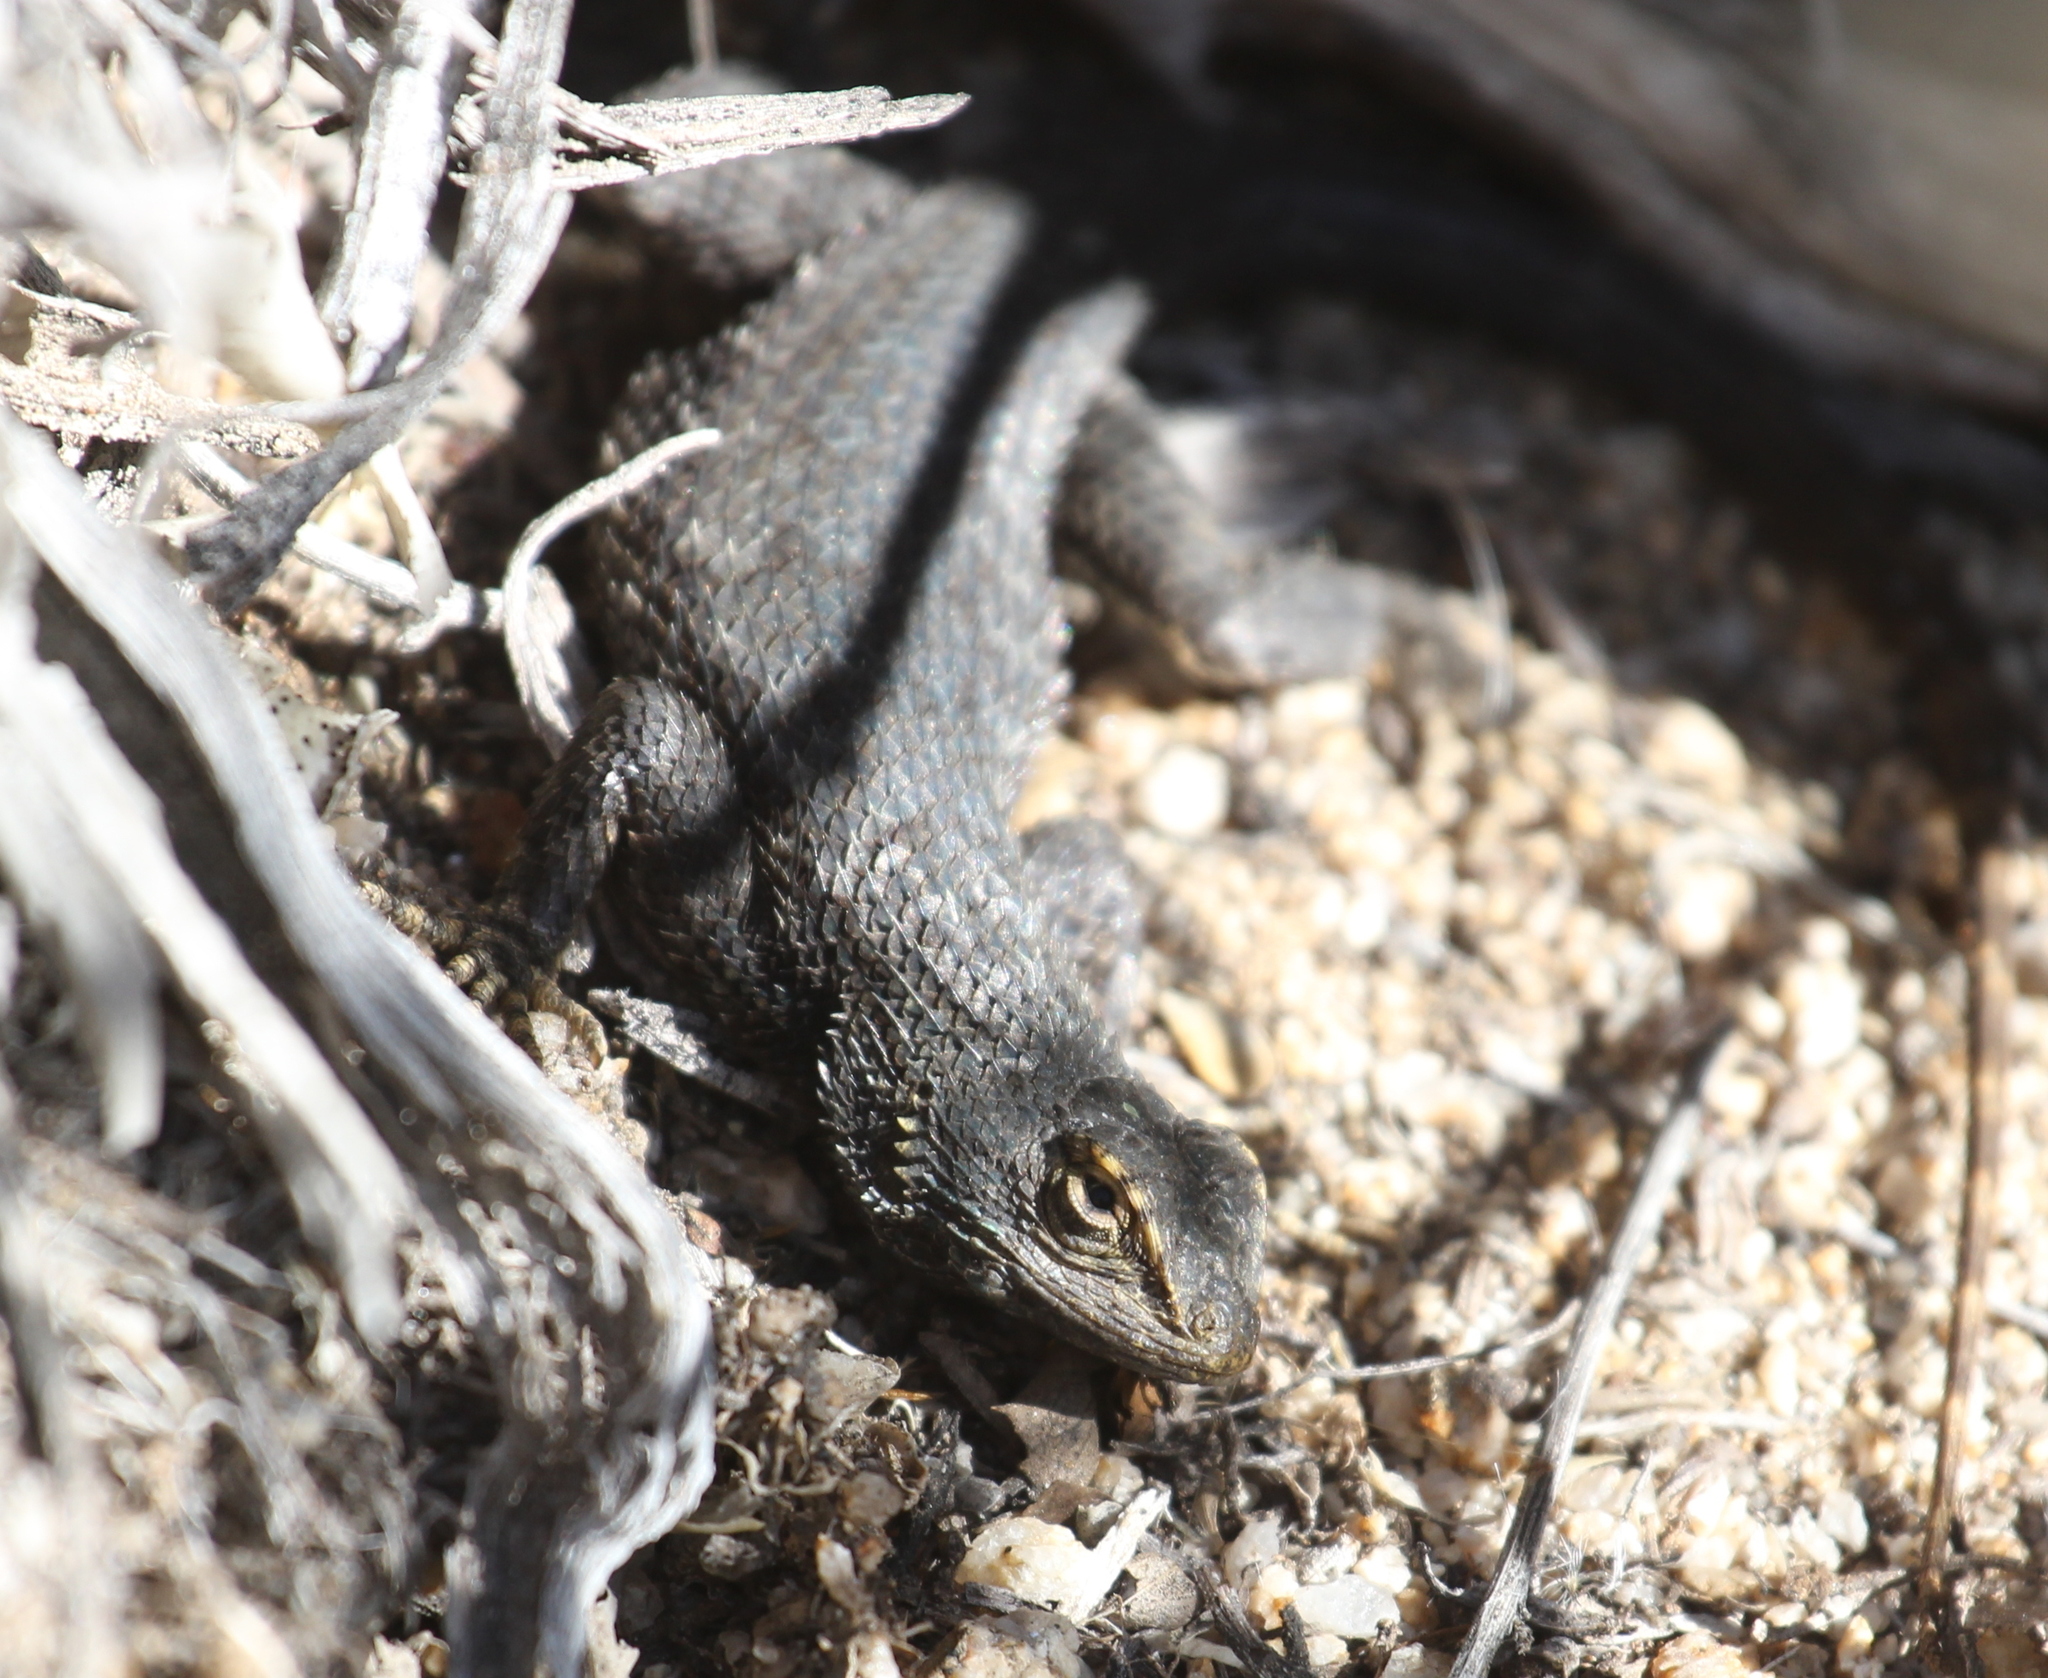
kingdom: Animalia
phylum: Chordata
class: Squamata
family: Phrynosomatidae
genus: Sceloporus
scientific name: Sceloporus occidentalis
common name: Western fence lizard
